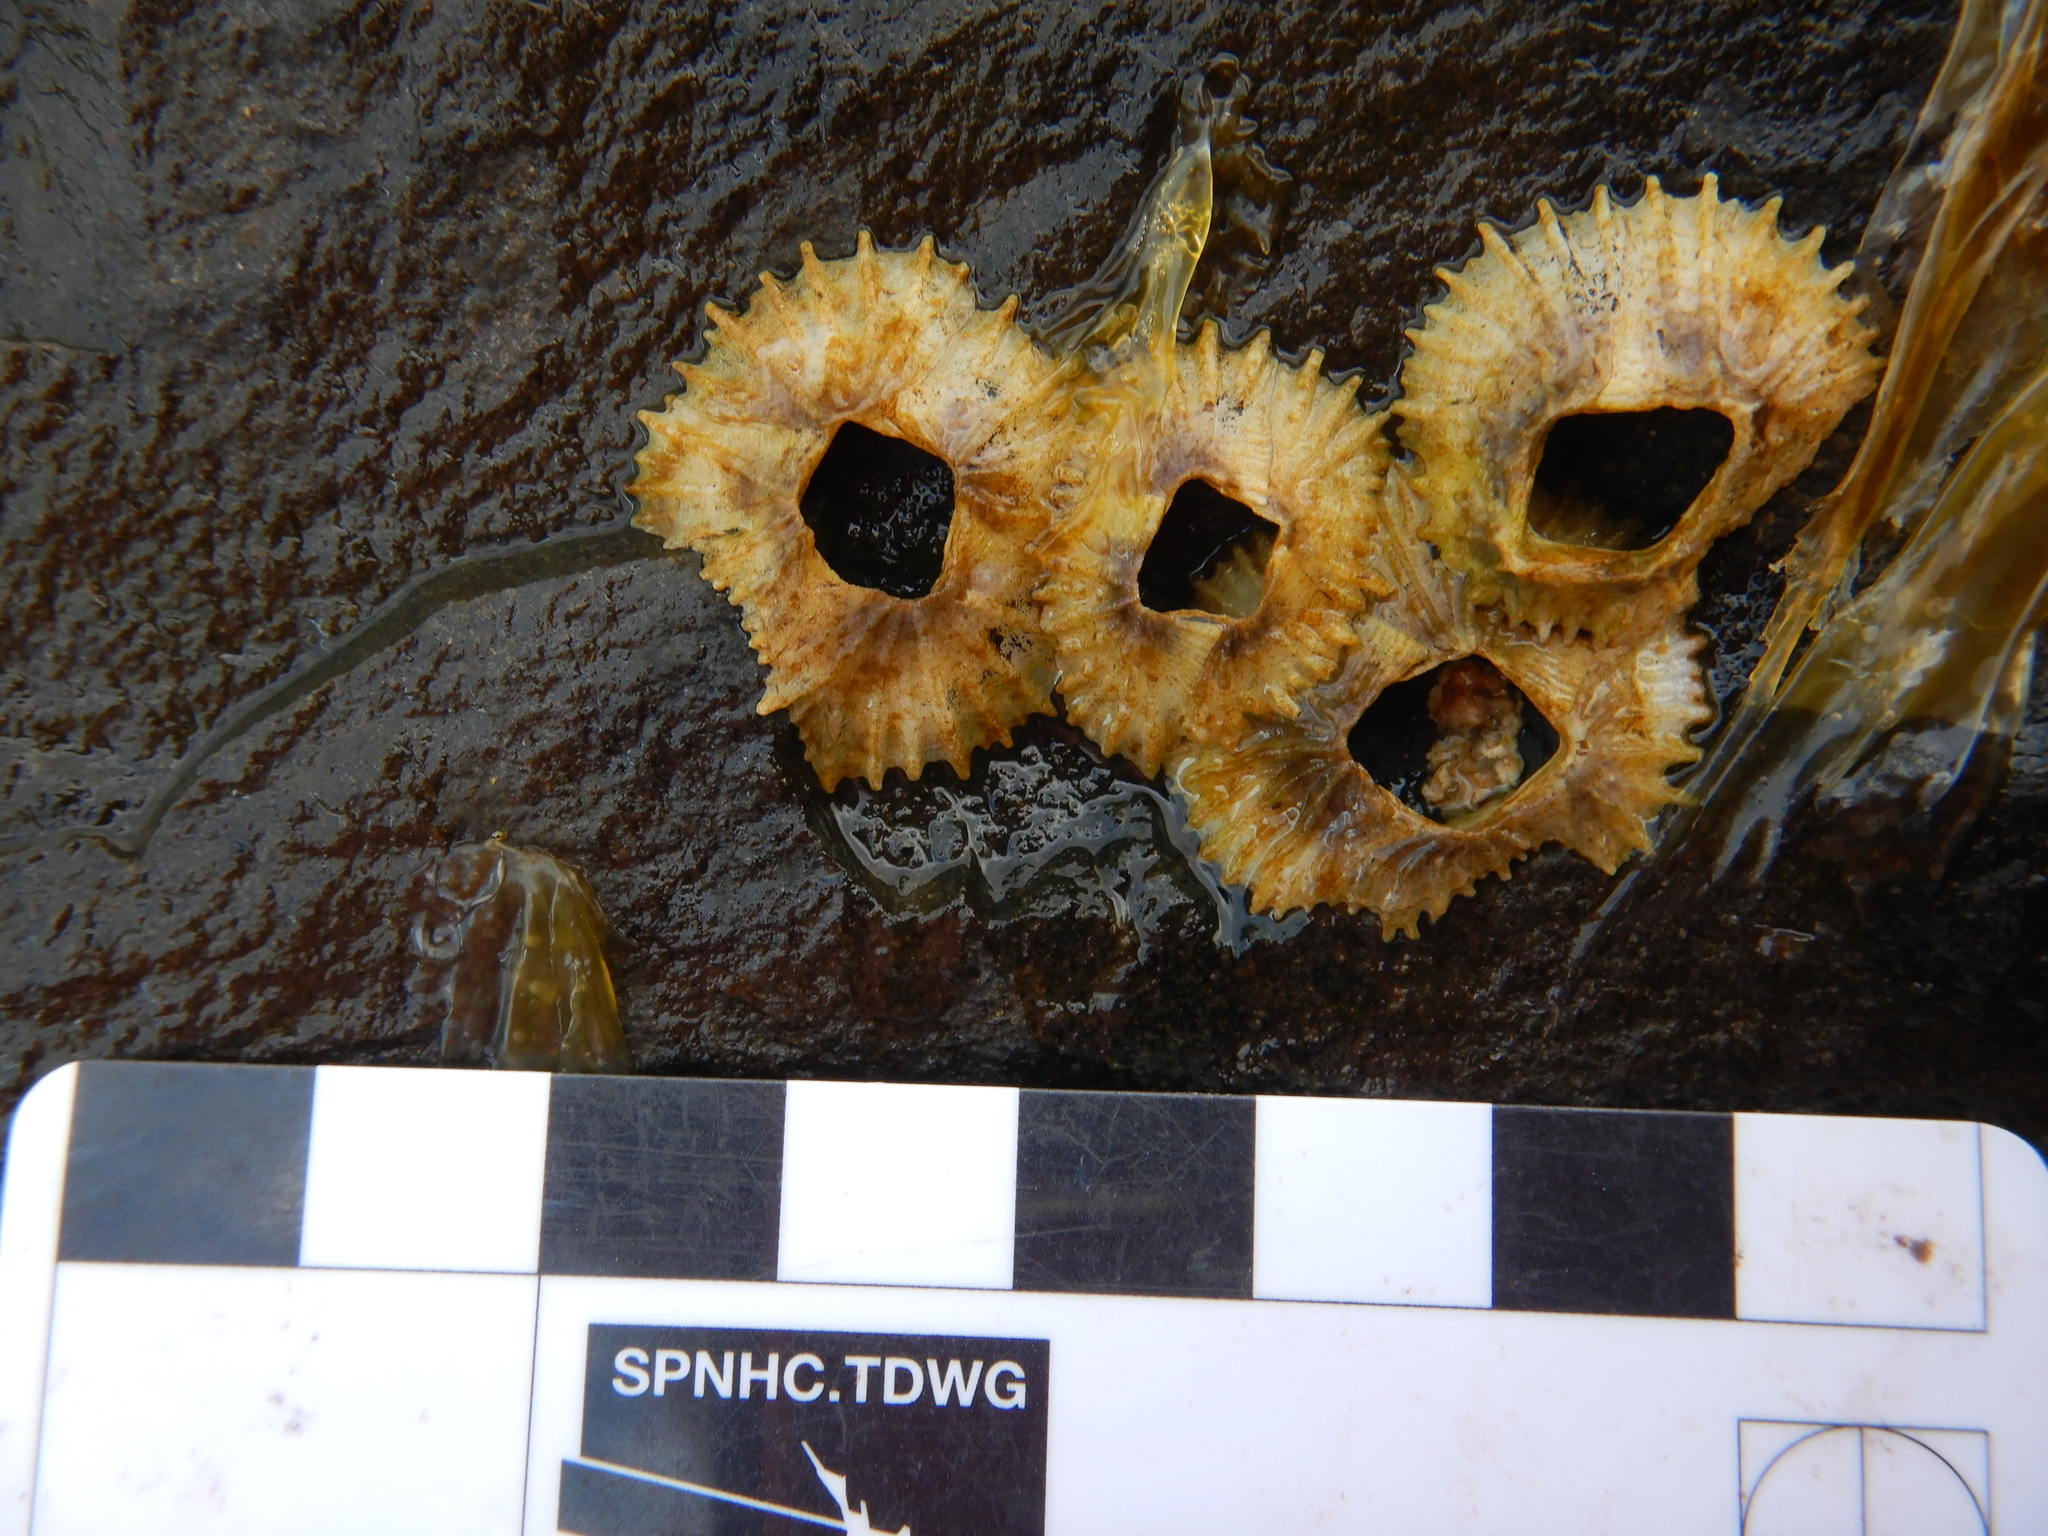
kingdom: Animalia
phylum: Arthropoda
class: Maxillopoda
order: Sessilia
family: Tetraclitidae
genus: Tetraclitella
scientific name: Tetraclitella purpurascens
